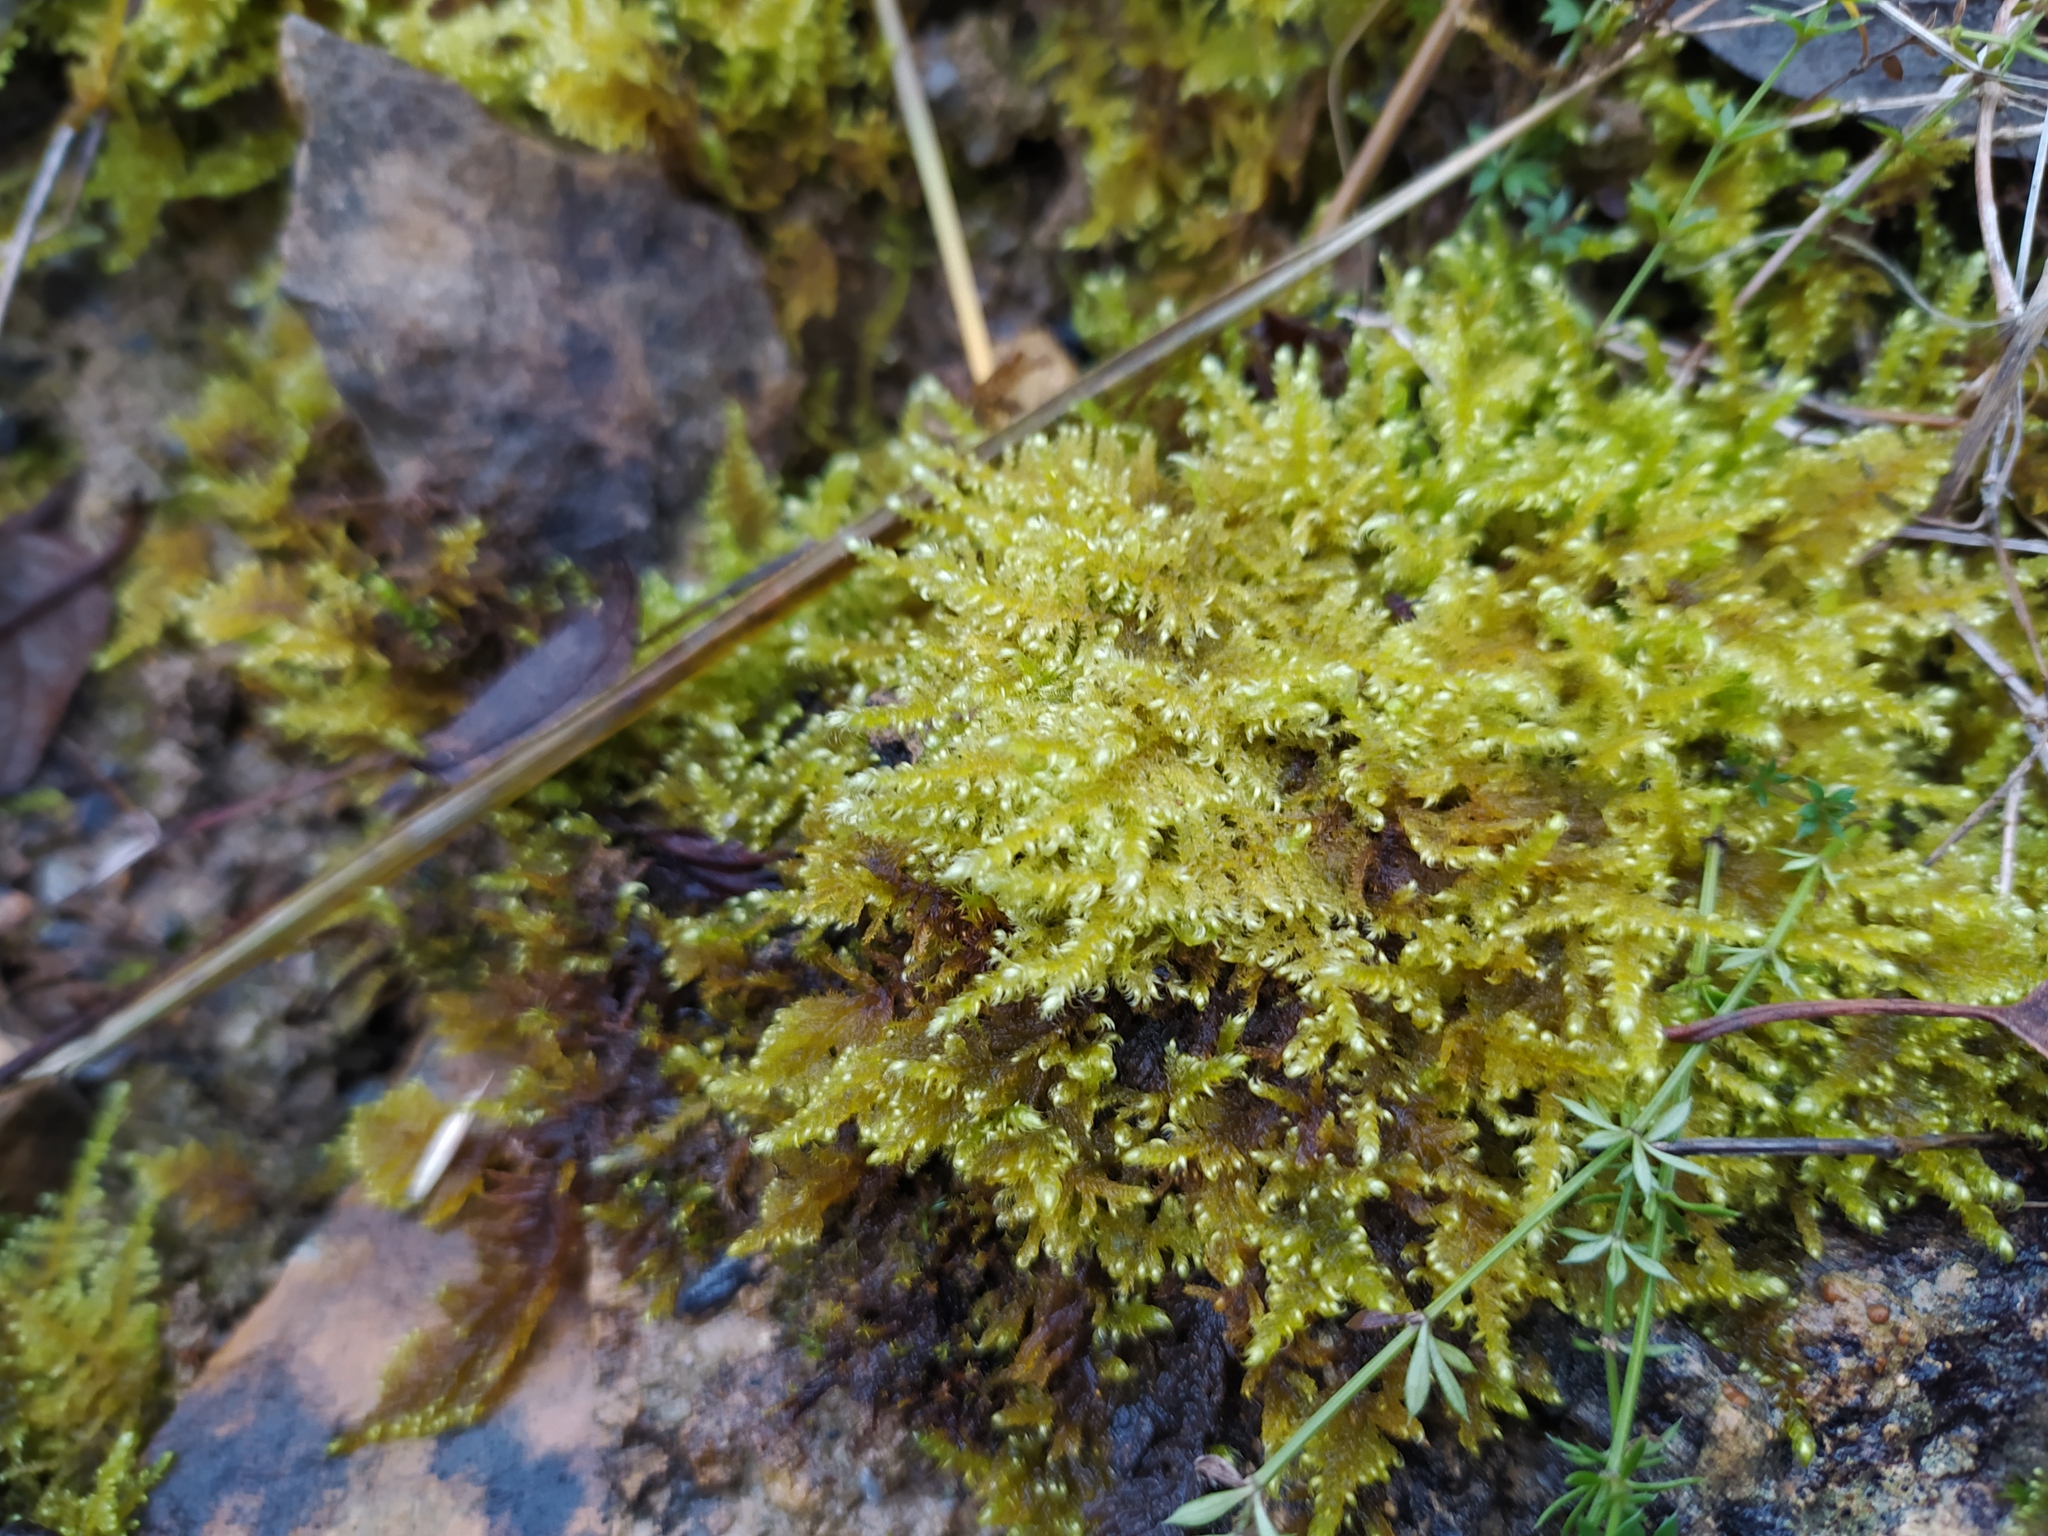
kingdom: Plantae
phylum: Bryophyta
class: Bryopsida
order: Hypnales
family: Myuriaceae
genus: Ctenidium
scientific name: Ctenidium molluscum
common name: Chalk comb-moss
